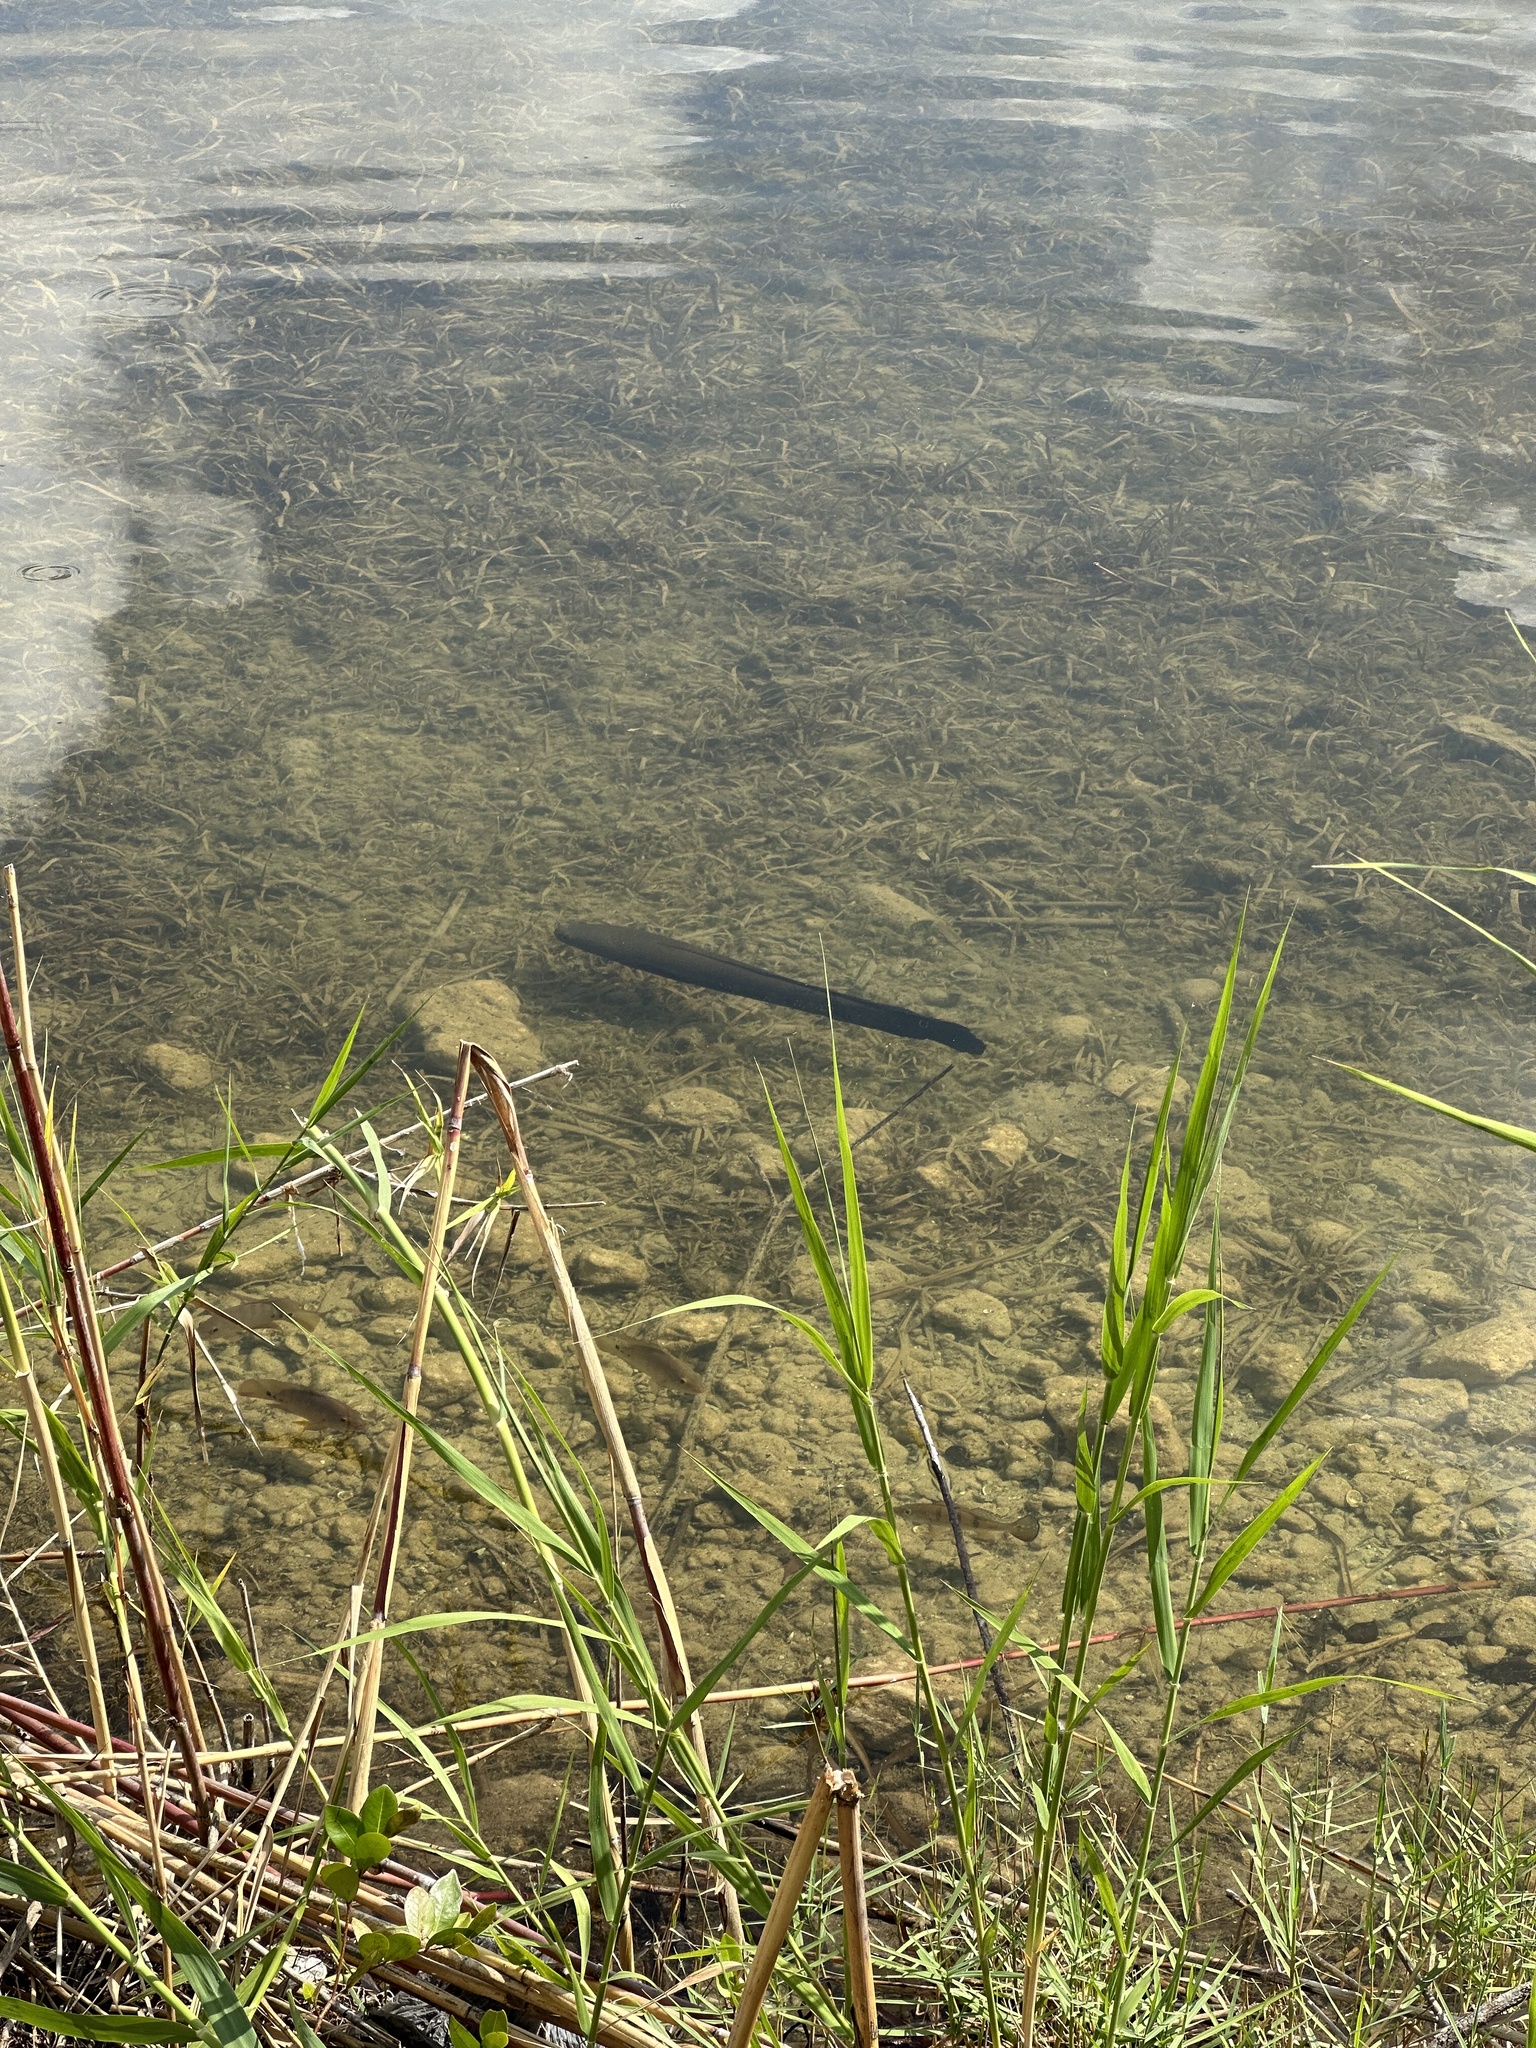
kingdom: Animalia
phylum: Chordata
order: Perciformes
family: Channidae
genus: Channa
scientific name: Channa marulius
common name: Giant snakehead
